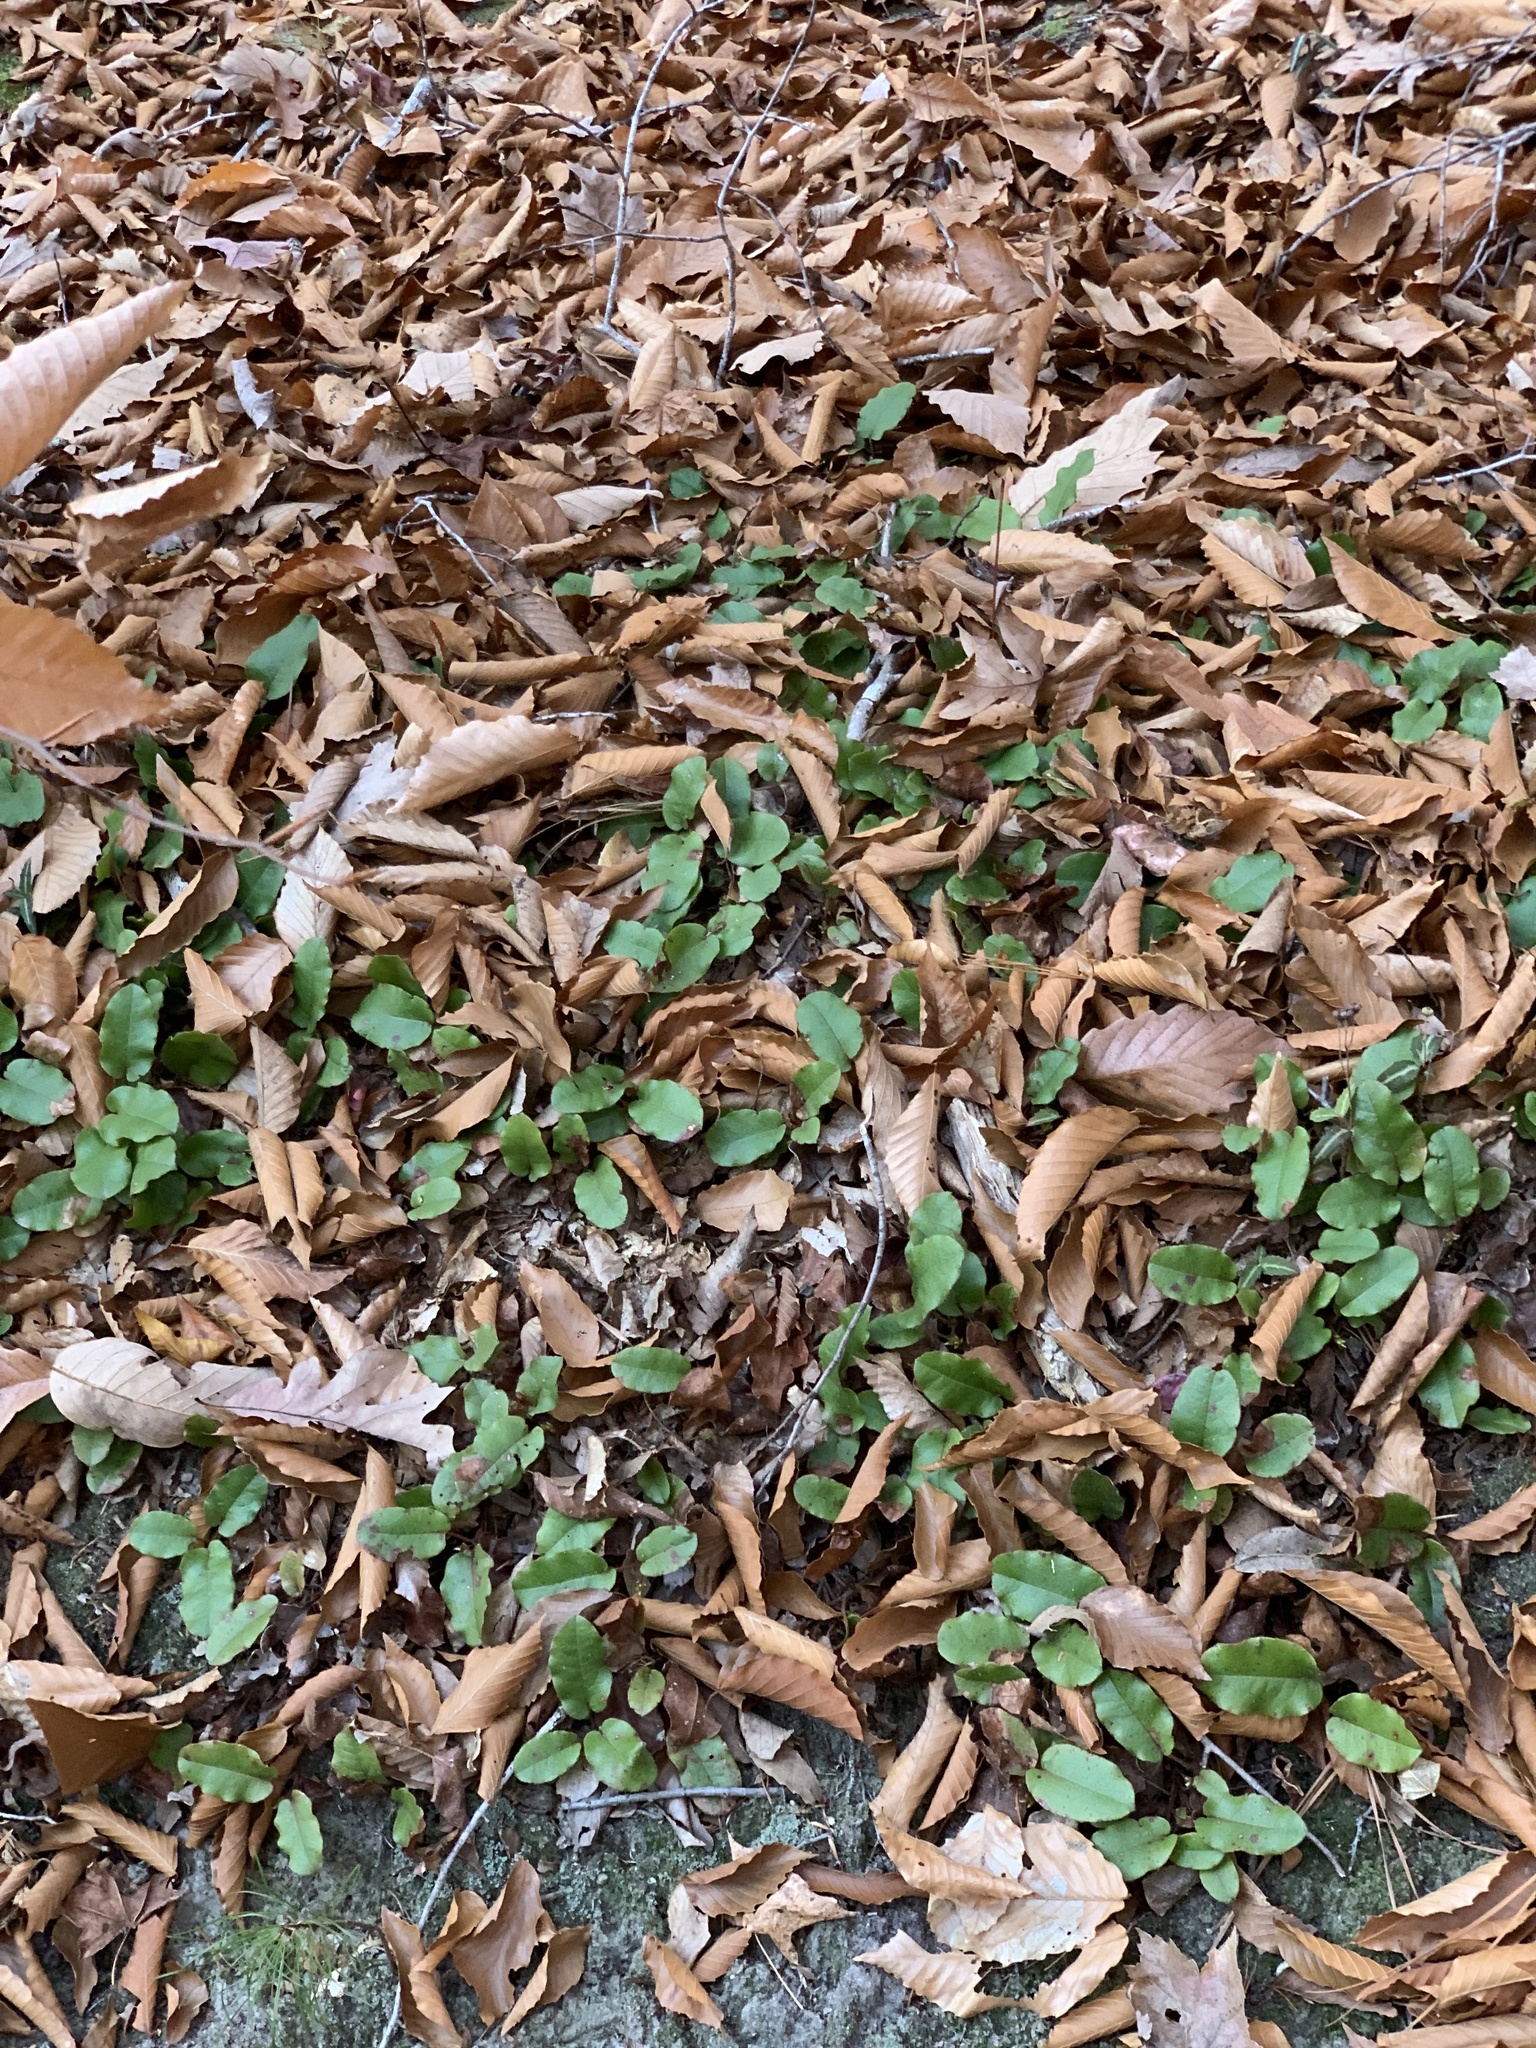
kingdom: Plantae
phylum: Tracheophyta
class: Magnoliopsida
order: Ericales
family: Ericaceae
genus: Epigaea
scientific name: Epigaea repens
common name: Gravelroot
